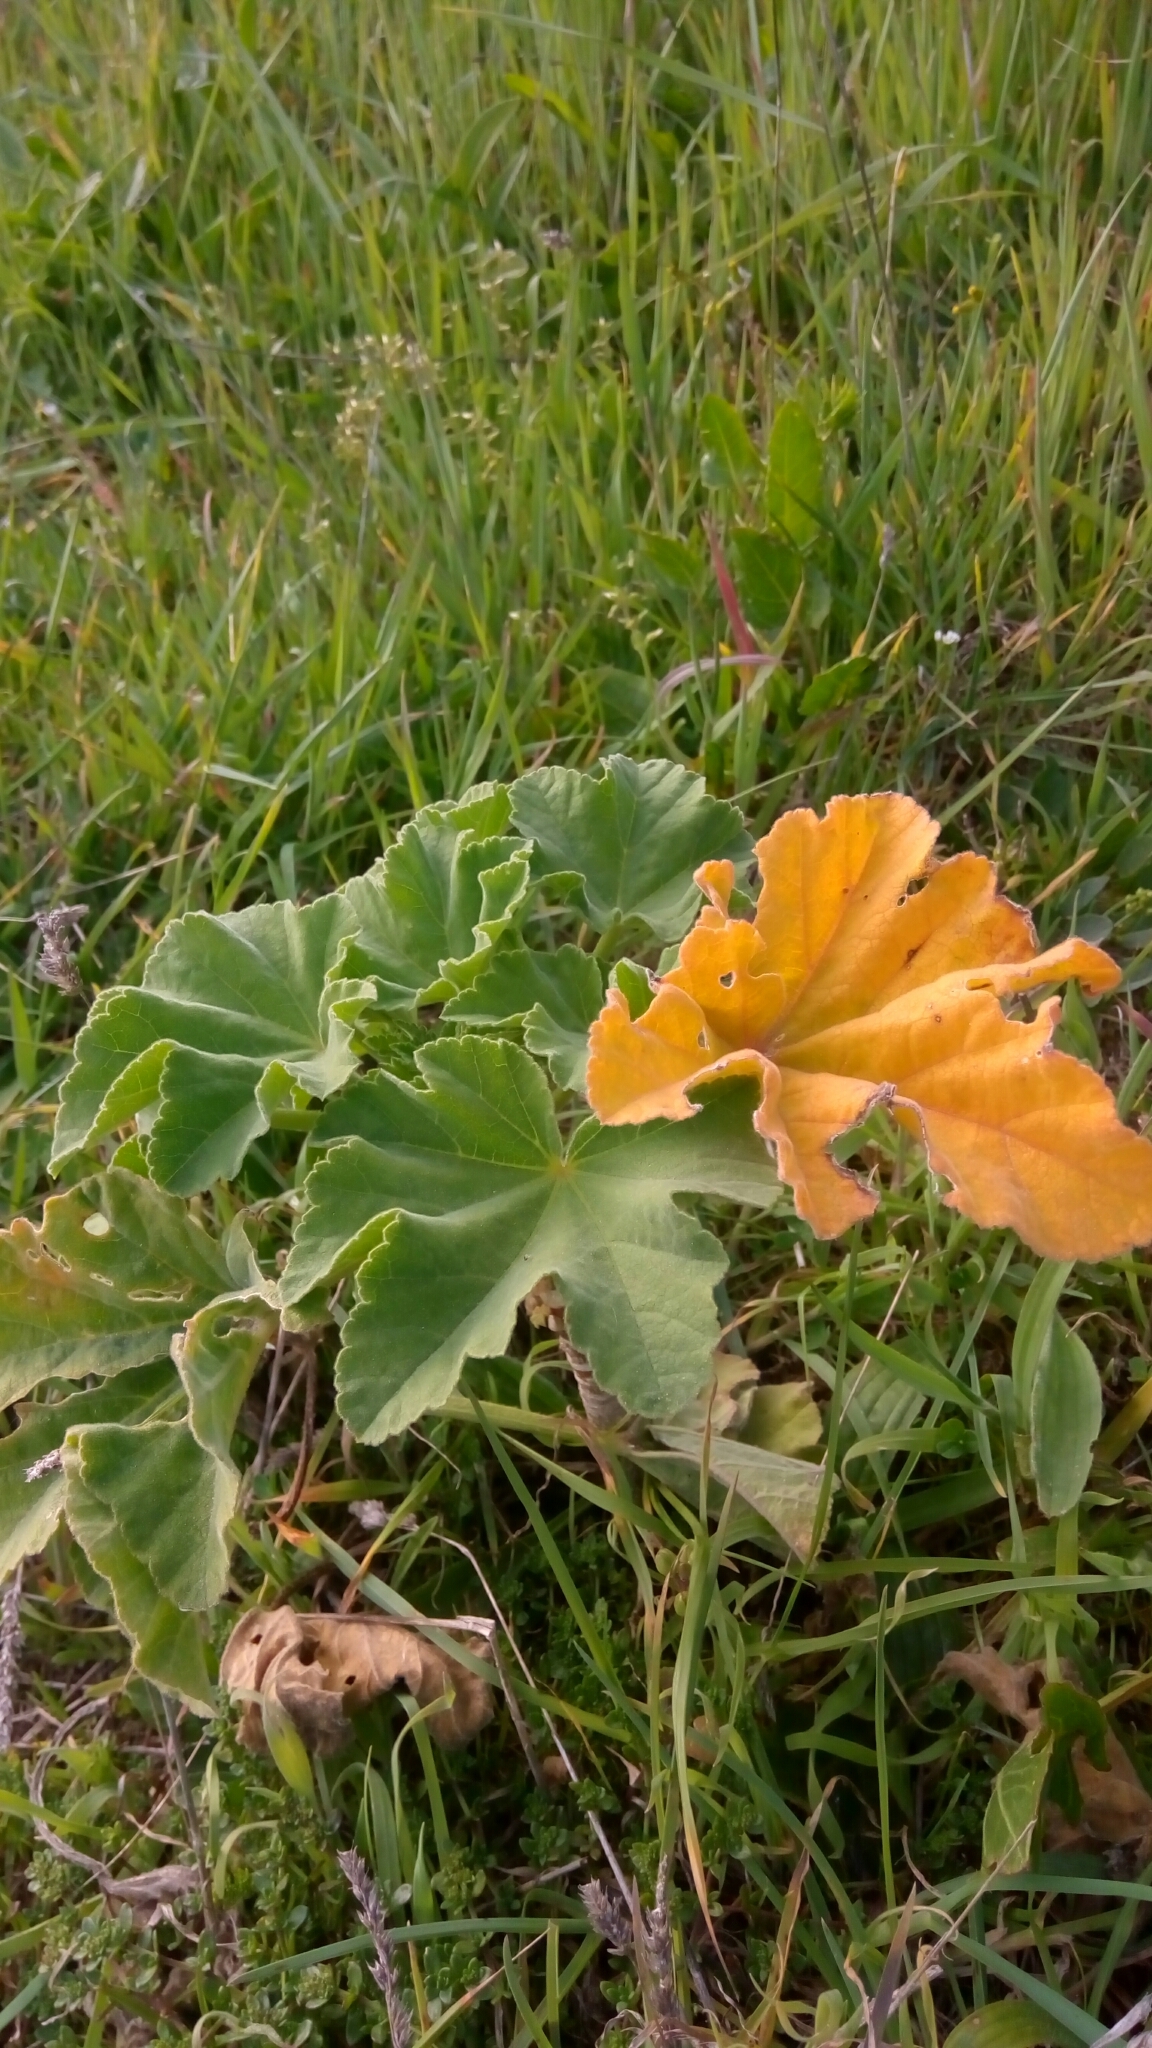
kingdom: Plantae
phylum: Tracheophyta
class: Magnoliopsida
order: Malvales
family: Malvaceae
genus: Malva
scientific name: Malva arborea
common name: Tree mallow
